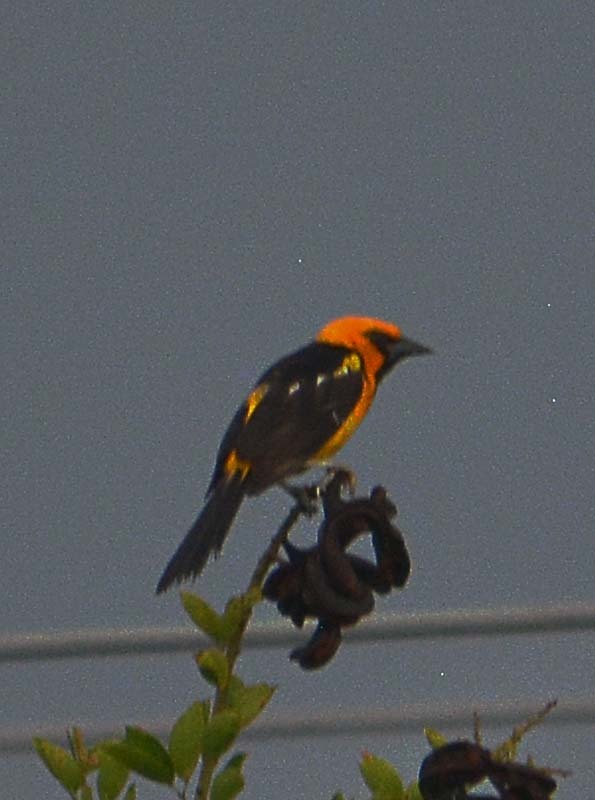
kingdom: Animalia
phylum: Chordata
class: Aves
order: Passeriformes
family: Icteridae
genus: Icterus
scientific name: Icterus gularis
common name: Altamira oriole
